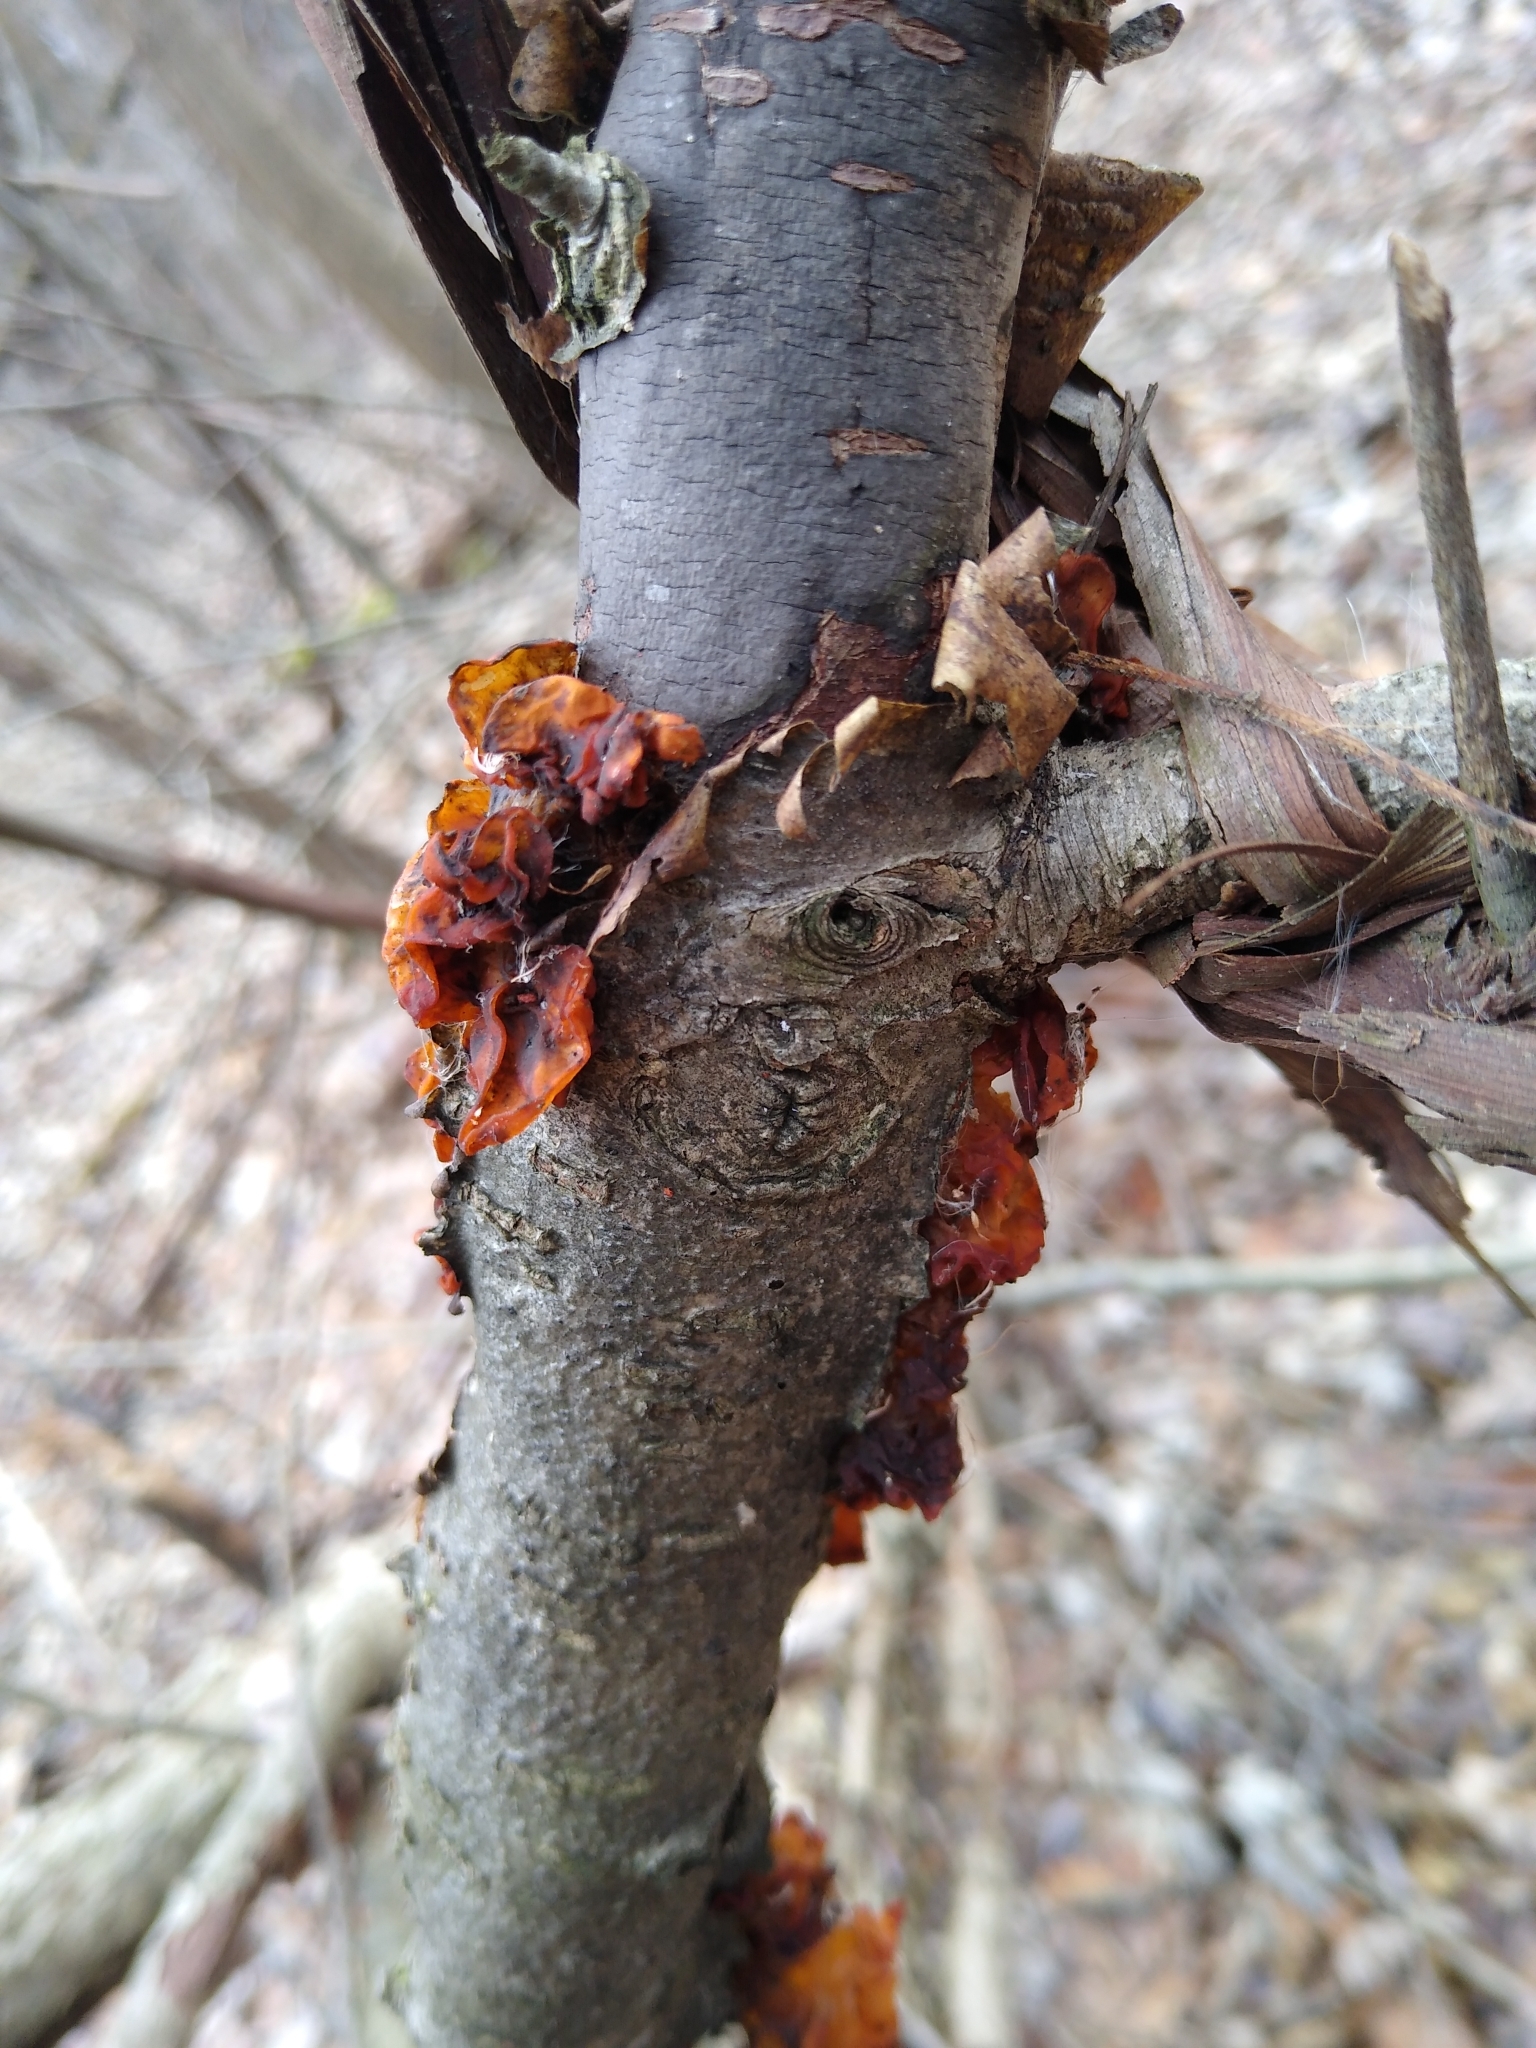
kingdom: Fungi
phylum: Basidiomycota
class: Tremellomycetes
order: Tremellales
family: Tremellaceae
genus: Tremella
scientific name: Tremella mesenterica
